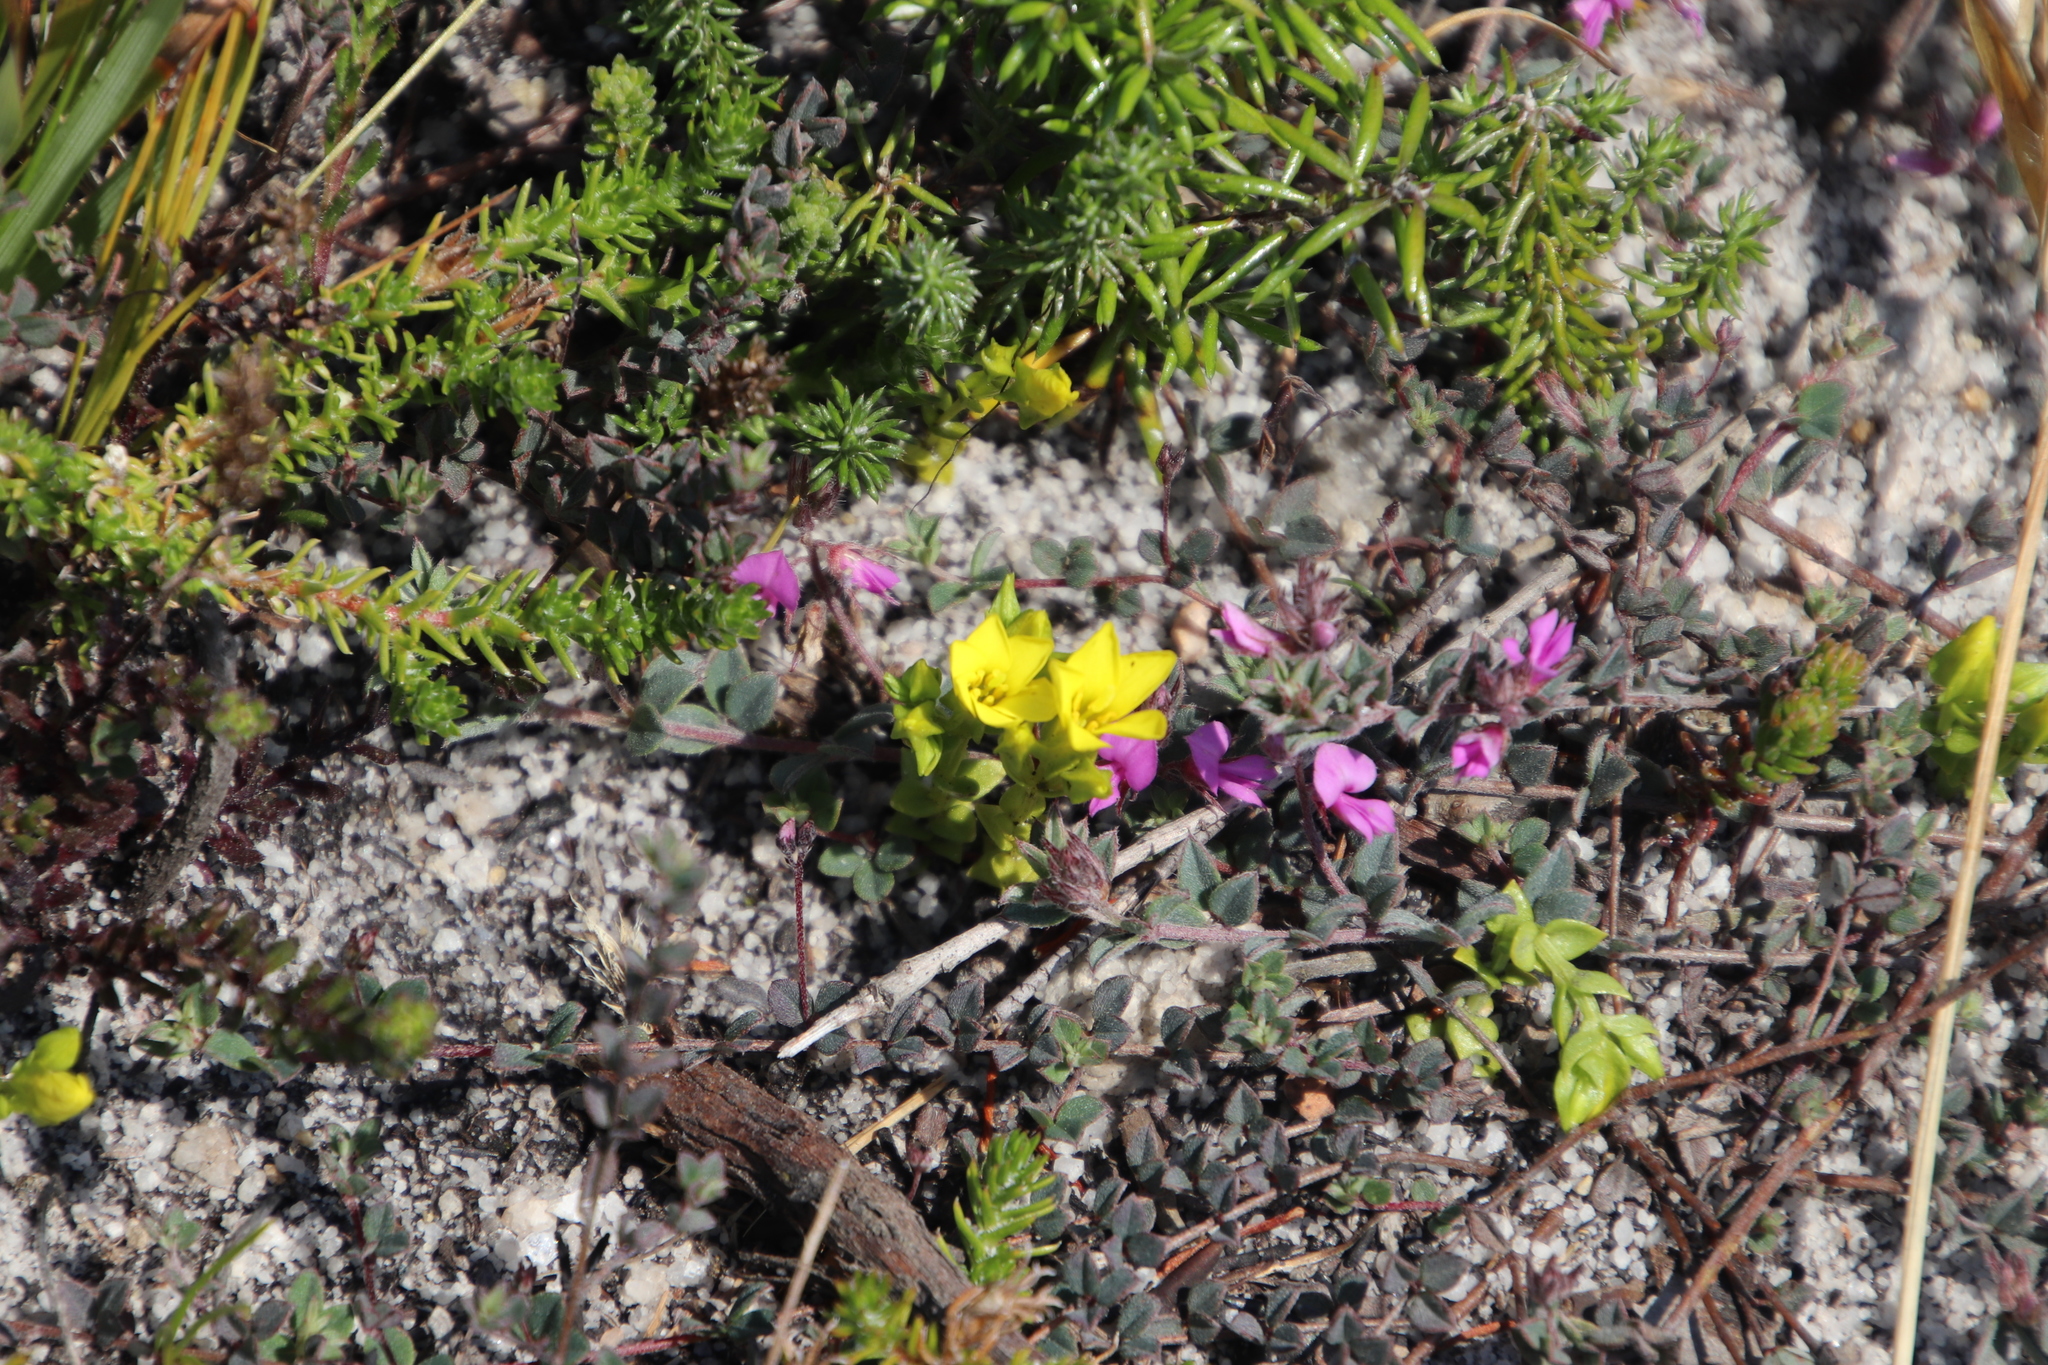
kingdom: Plantae
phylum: Tracheophyta
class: Magnoliopsida
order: Gentianales
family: Gentianaceae
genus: Sebaea
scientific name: Sebaea sulphurea
